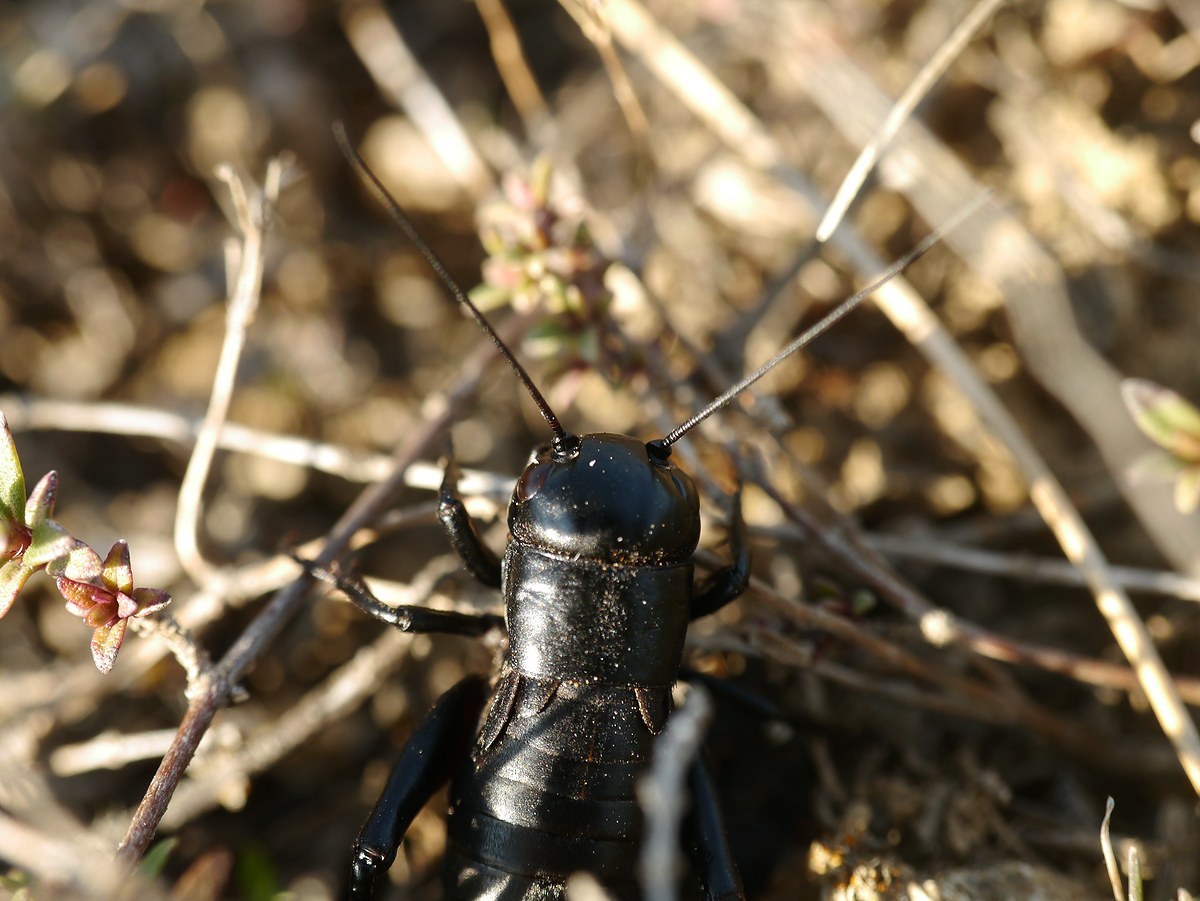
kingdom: Animalia
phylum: Arthropoda
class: Insecta
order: Orthoptera
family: Gryllidae
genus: Gryllus
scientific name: Gryllus campestris
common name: Field cricket
